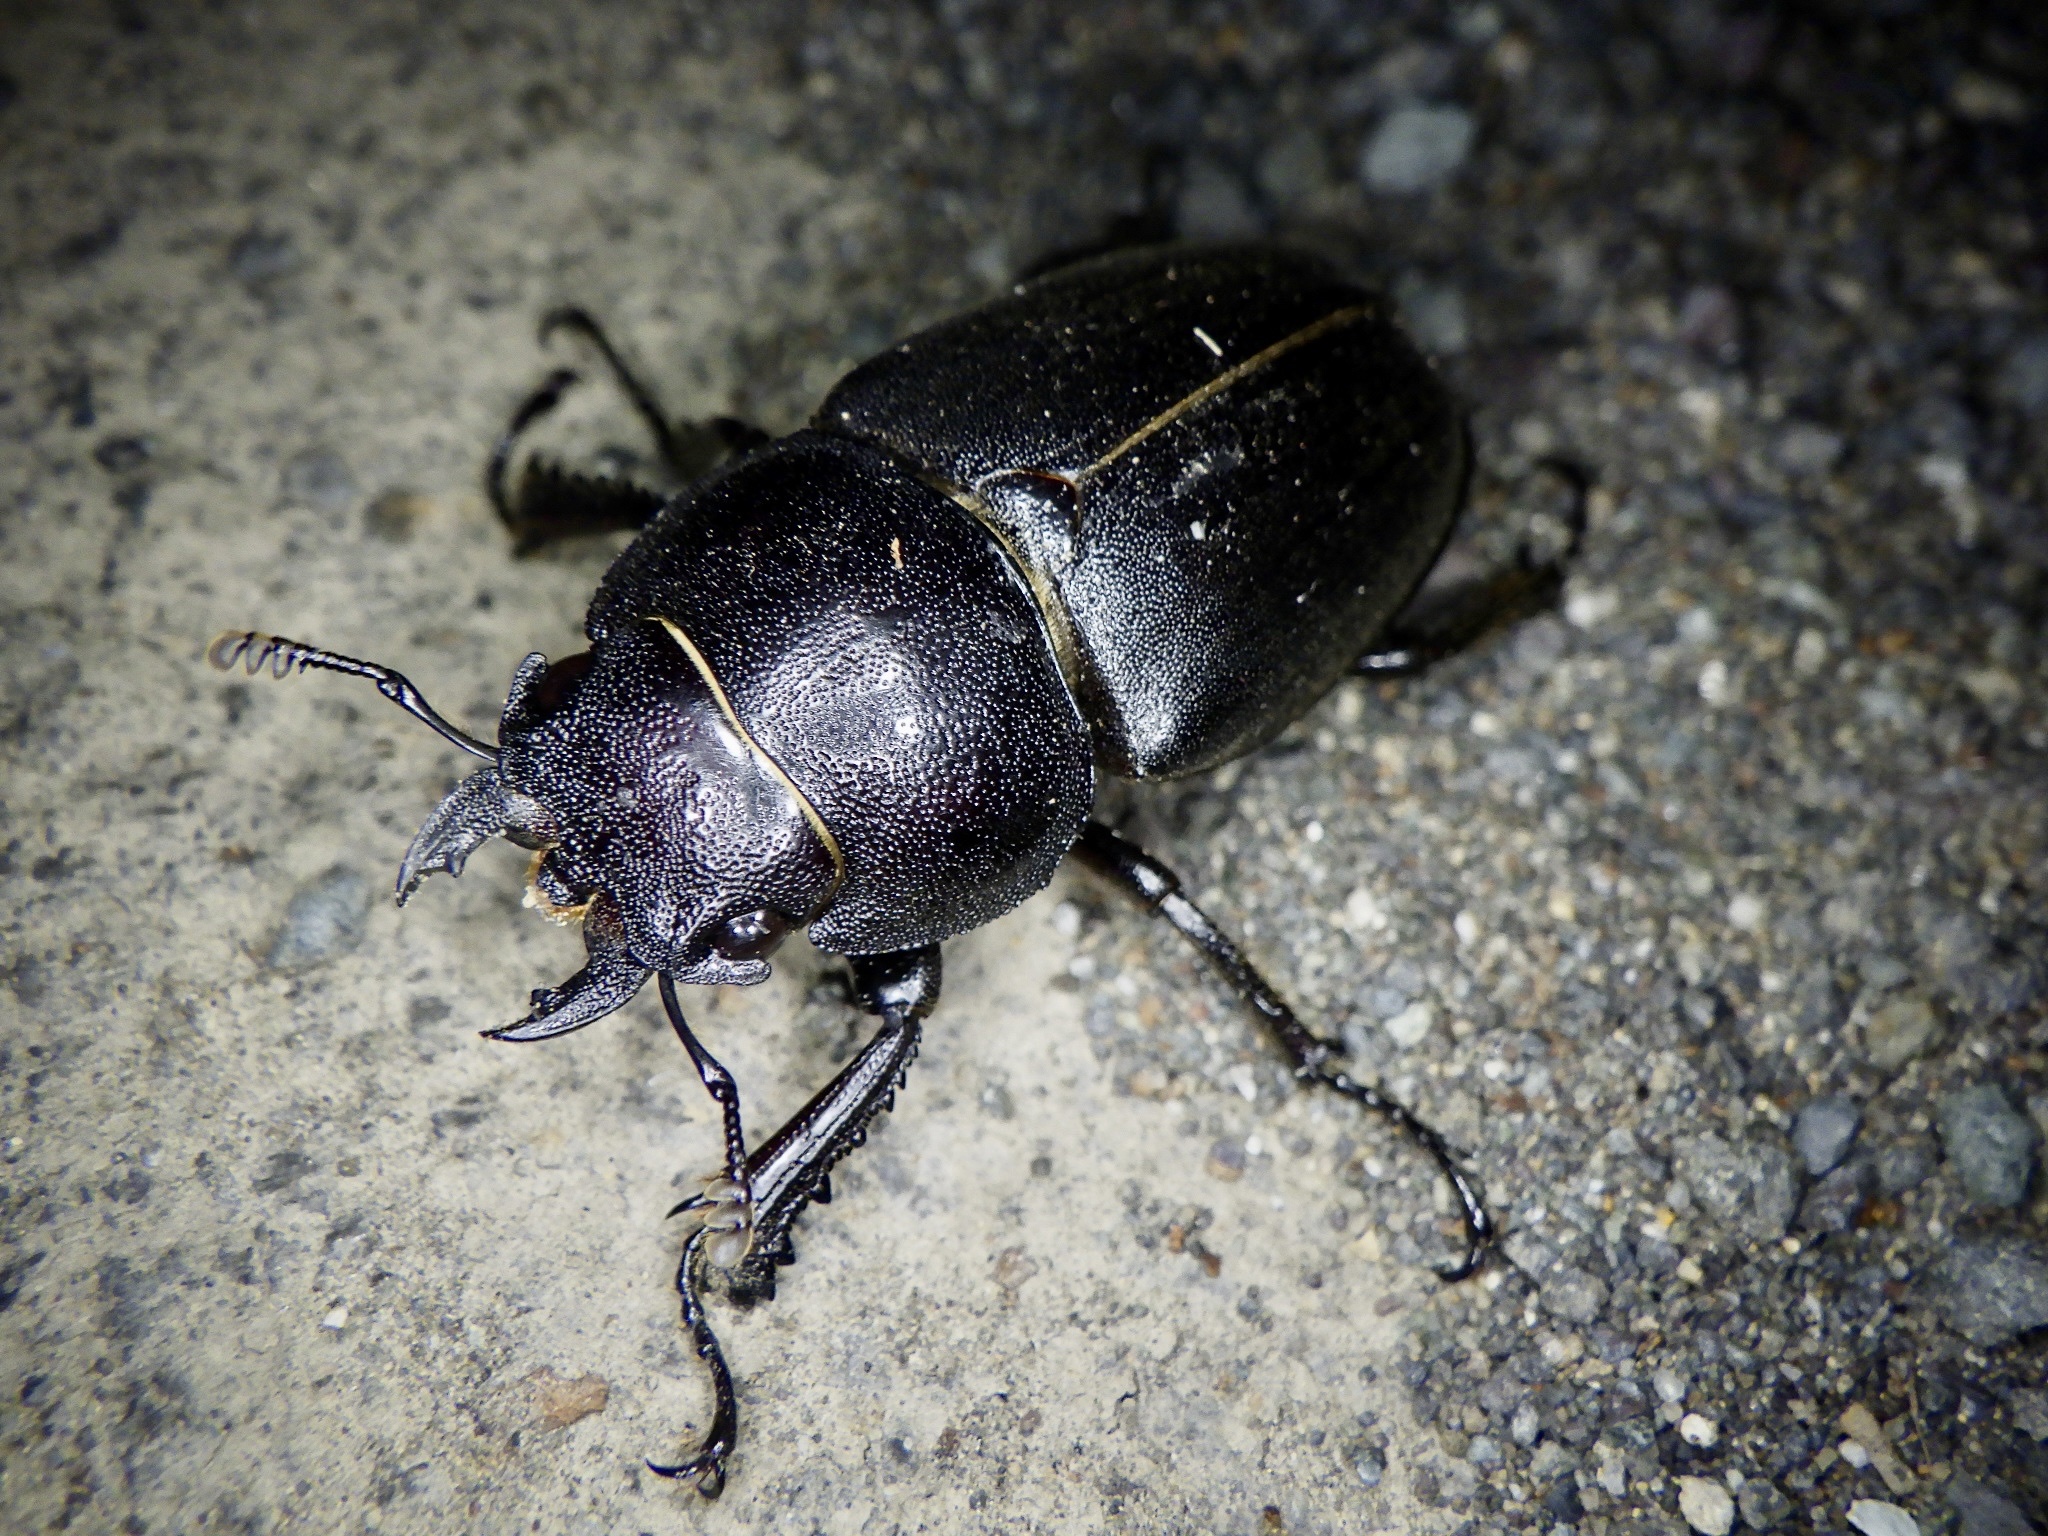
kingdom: Animalia
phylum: Arthropoda
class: Insecta
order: Coleoptera
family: Lucanidae
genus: Prosopocoilus
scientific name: Prosopocoilus inclinatus
